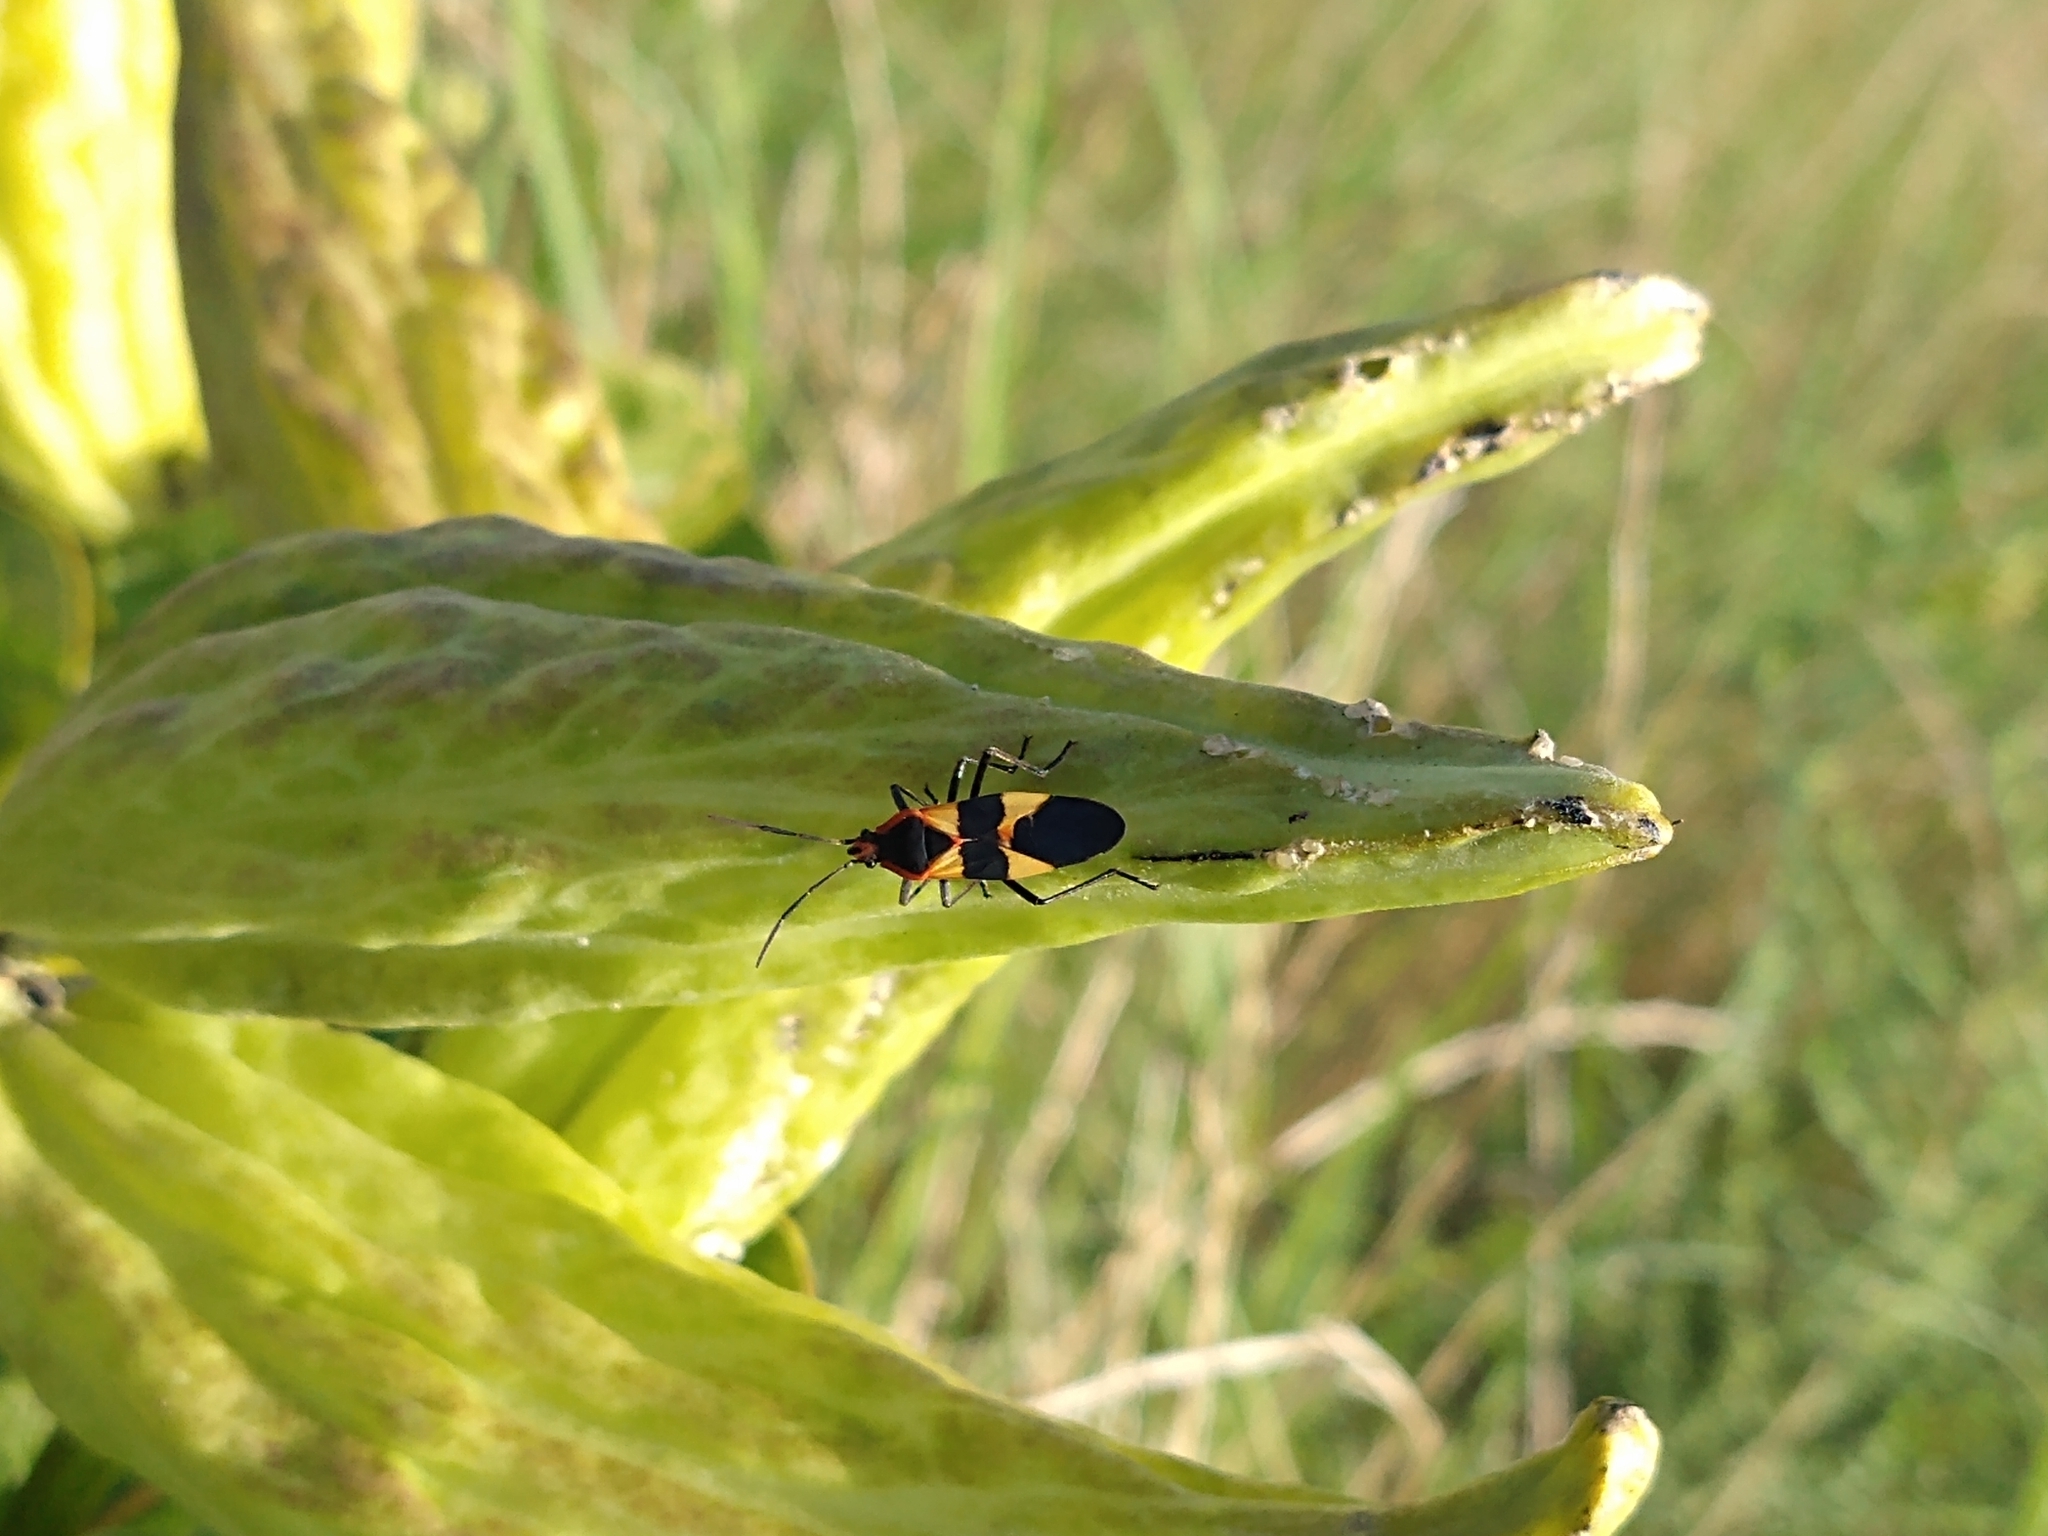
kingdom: Animalia
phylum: Arthropoda
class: Insecta
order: Hemiptera
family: Lygaeidae
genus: Oncopeltus
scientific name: Oncopeltus fasciatus
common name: Large milkweed bug
